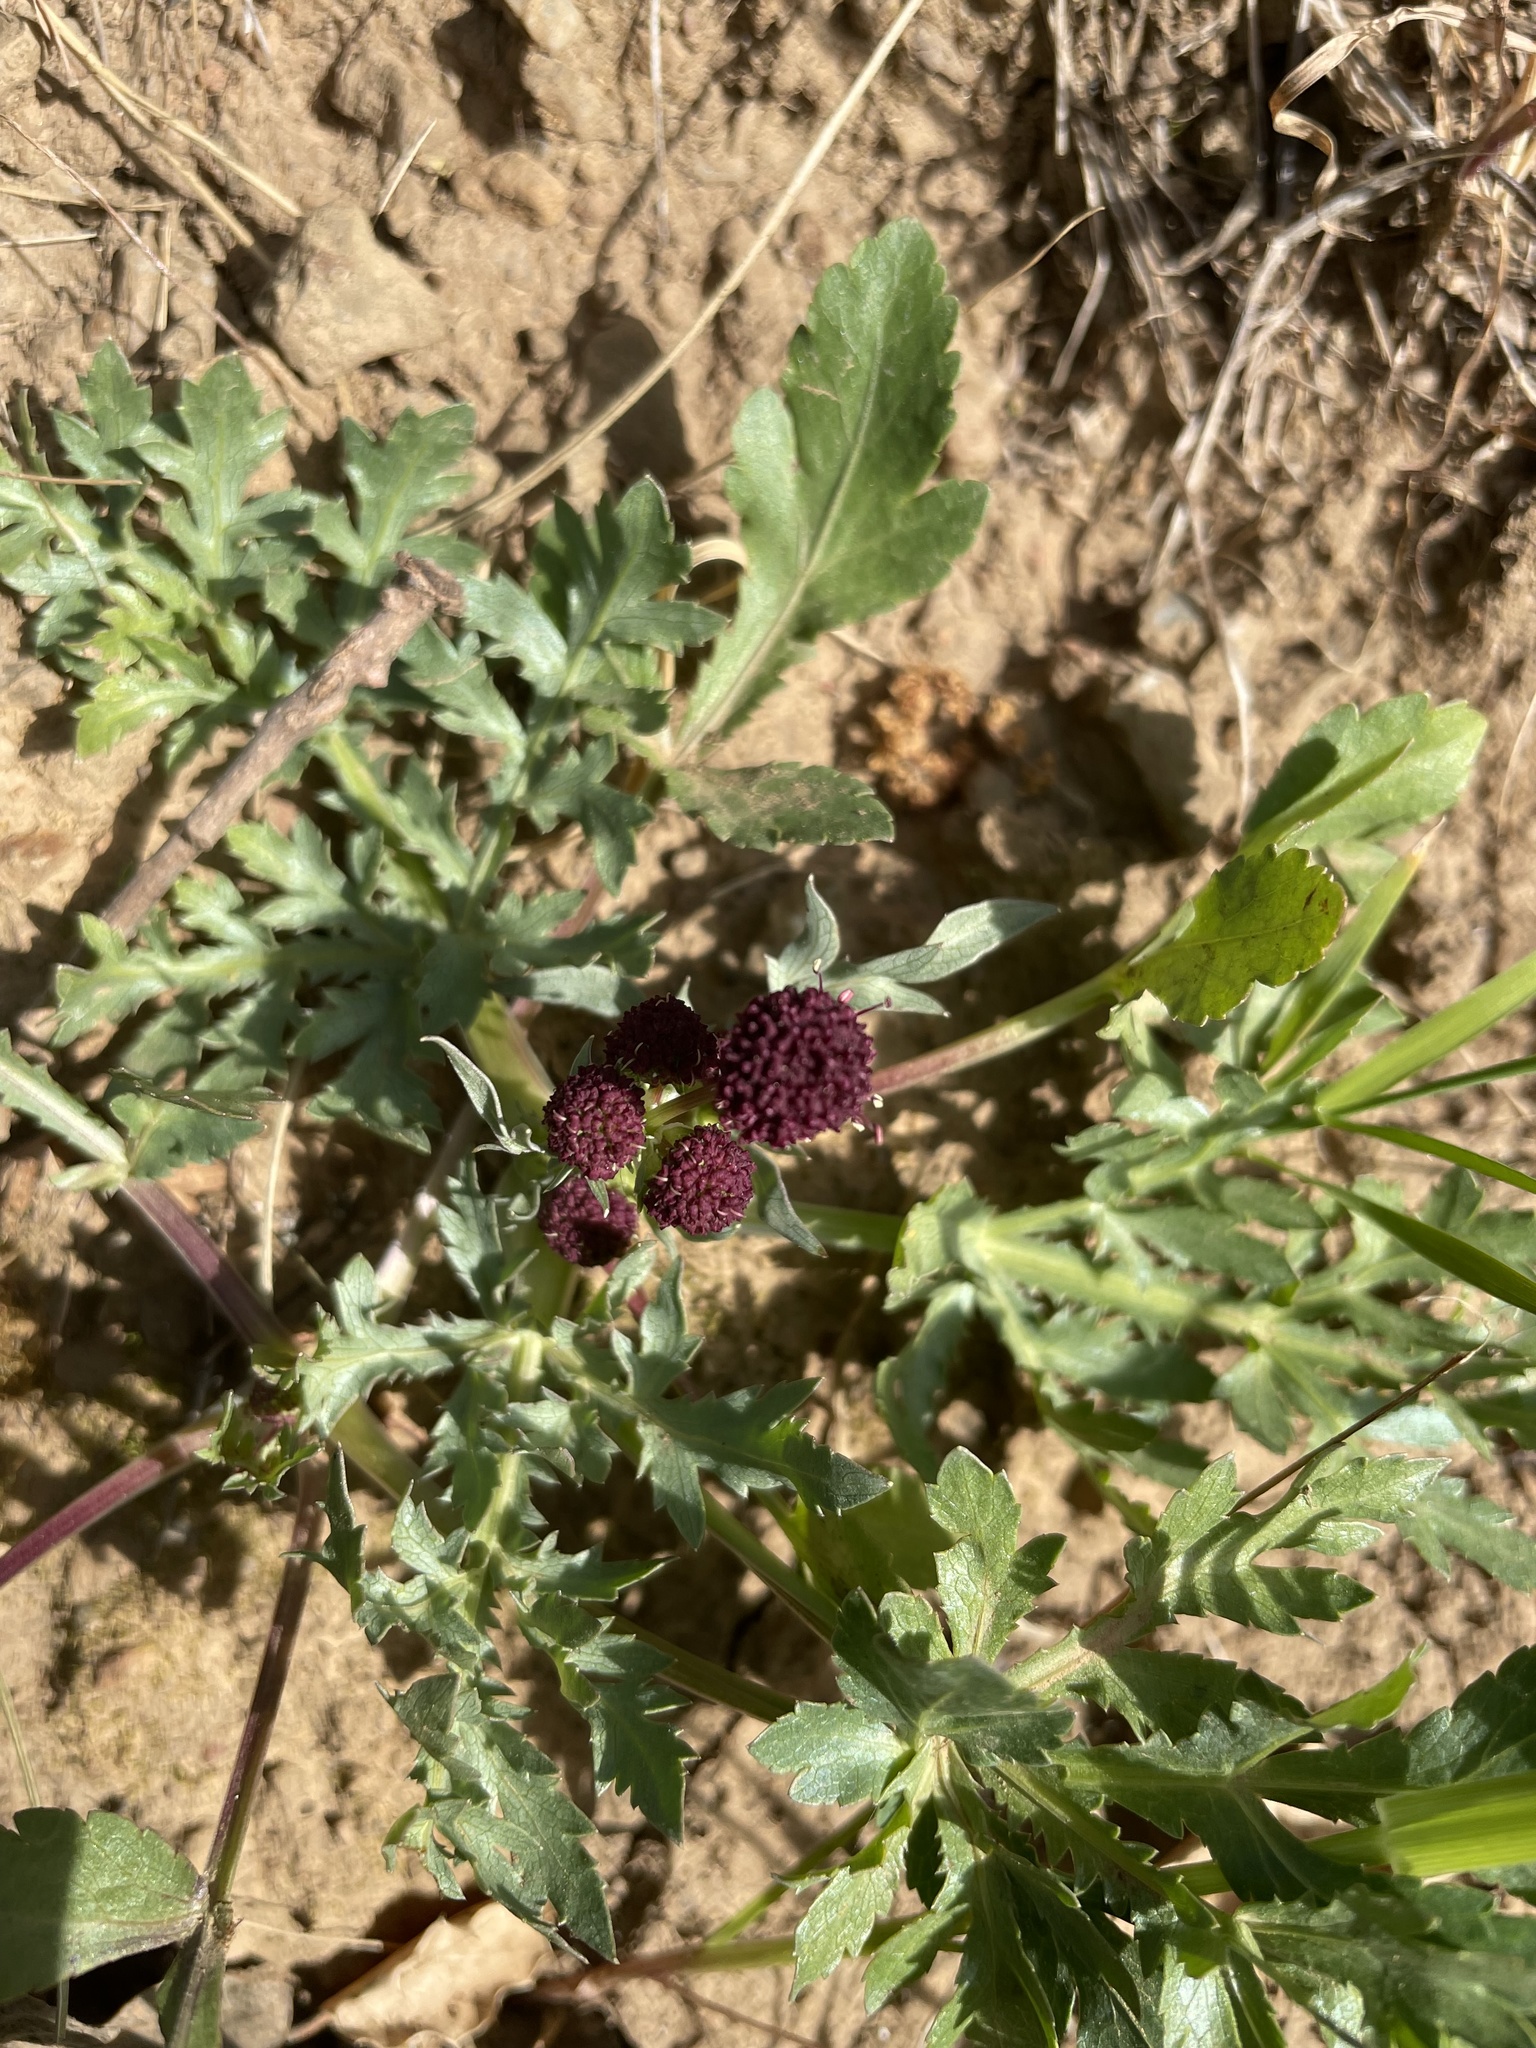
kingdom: Plantae
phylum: Tracheophyta
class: Magnoliopsida
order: Apiales
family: Apiaceae
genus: Sanicula
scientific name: Sanicula bipinnatifida
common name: Shoe-buttons
